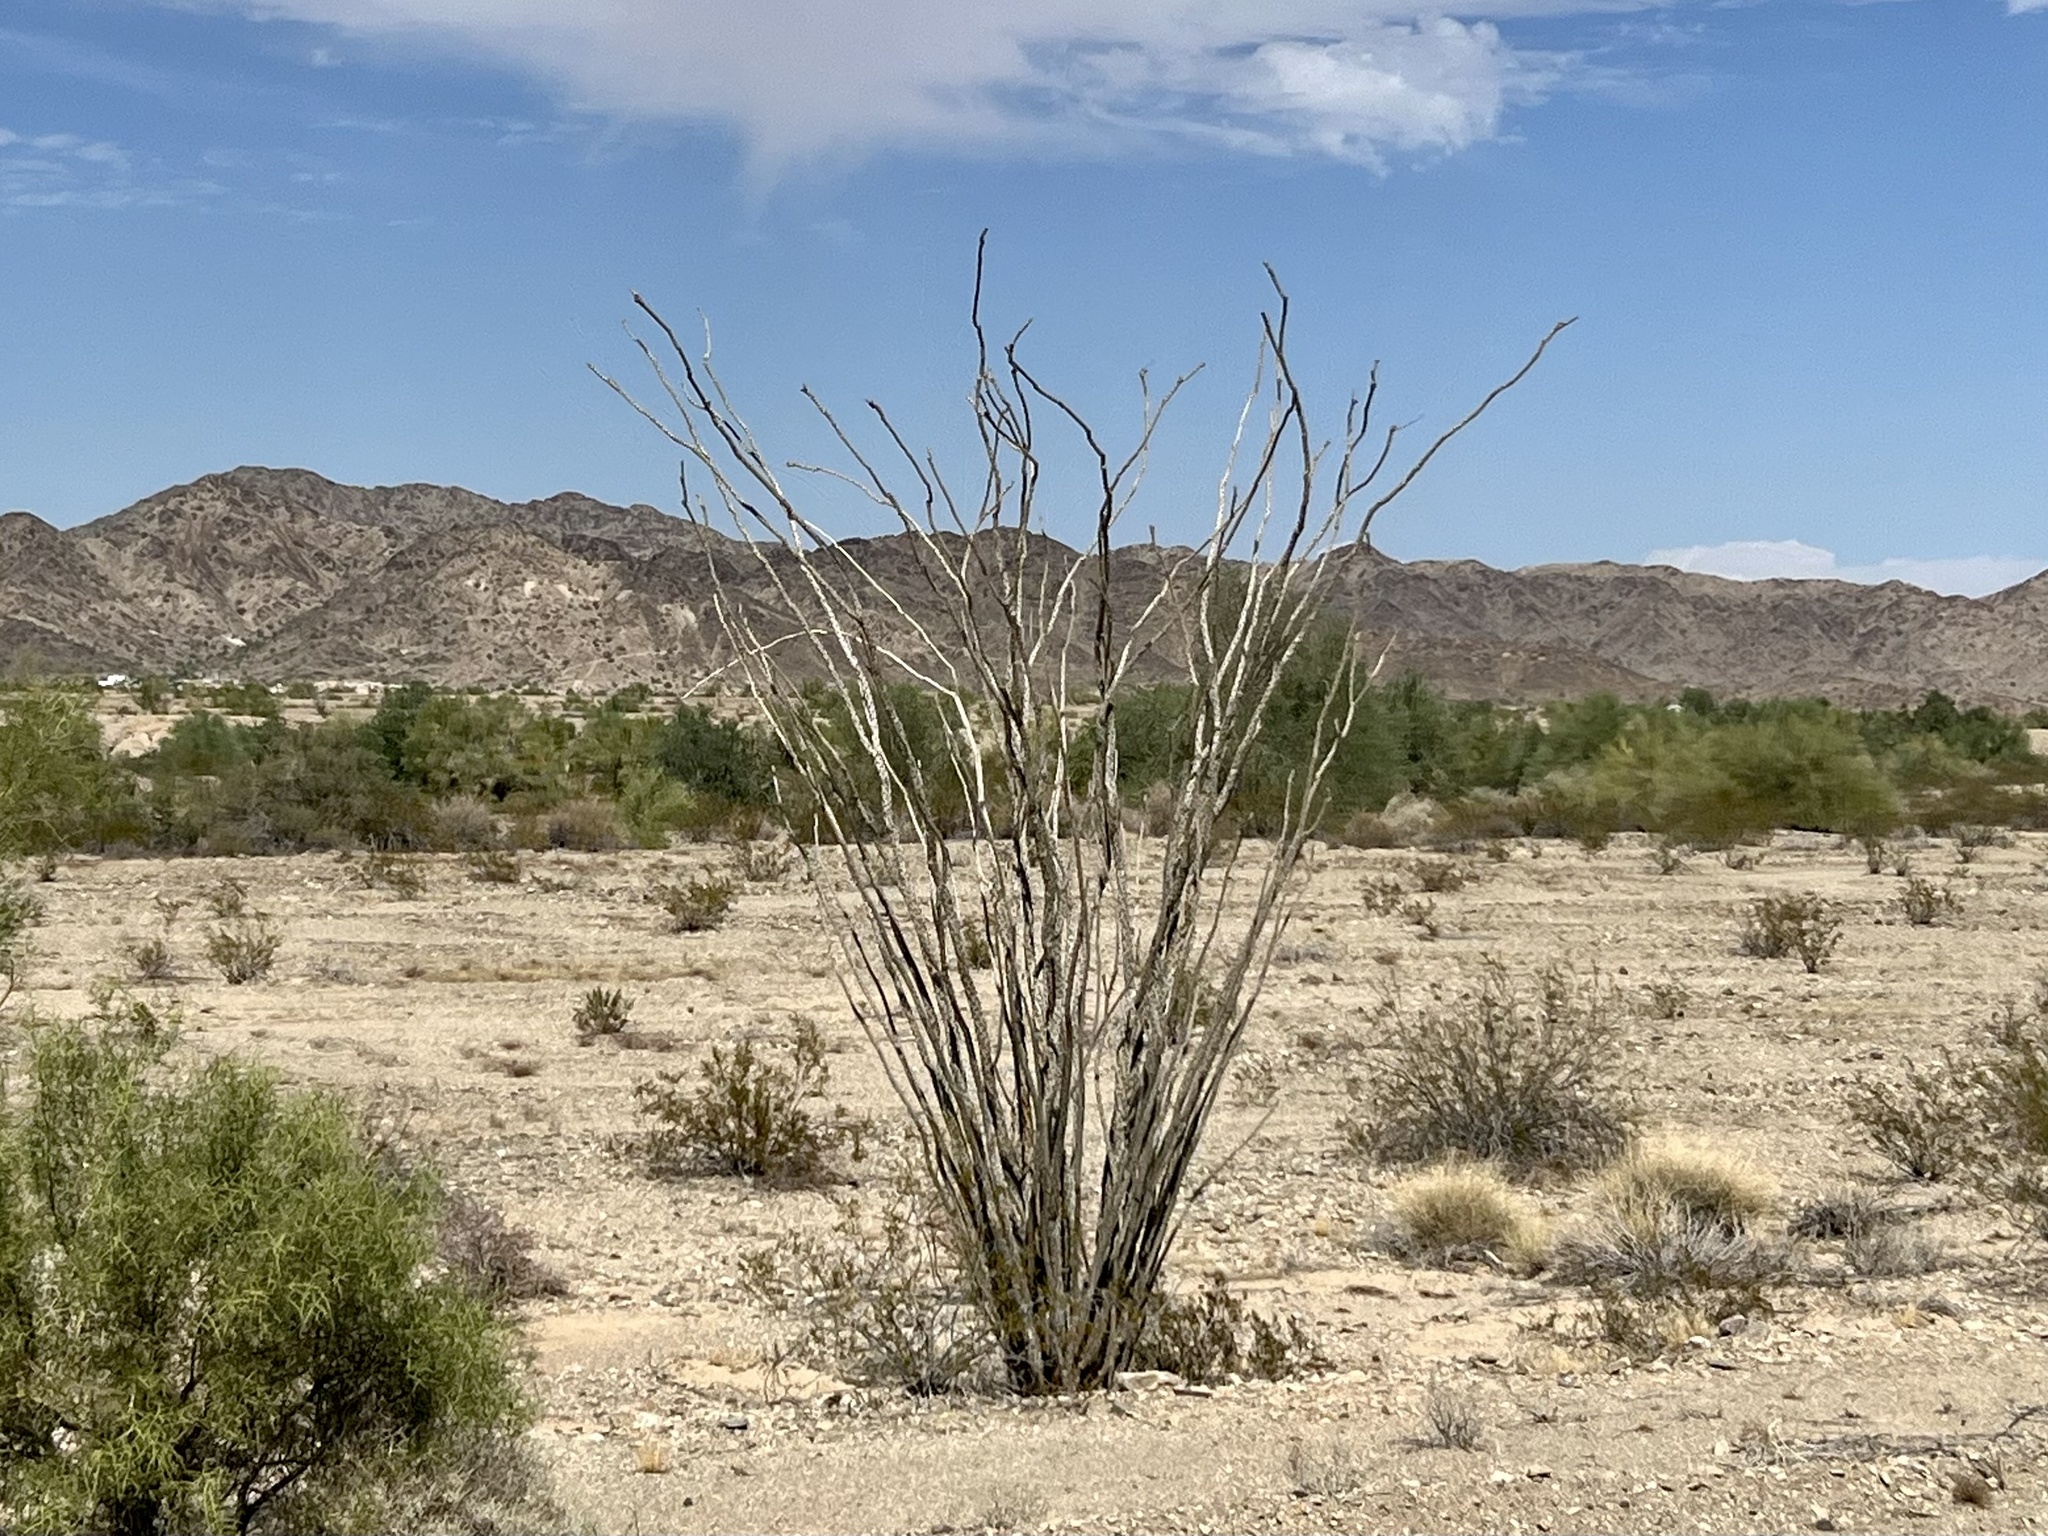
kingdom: Plantae
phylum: Tracheophyta
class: Magnoliopsida
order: Ericales
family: Fouquieriaceae
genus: Fouquieria
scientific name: Fouquieria splendens
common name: Vine-cactus
